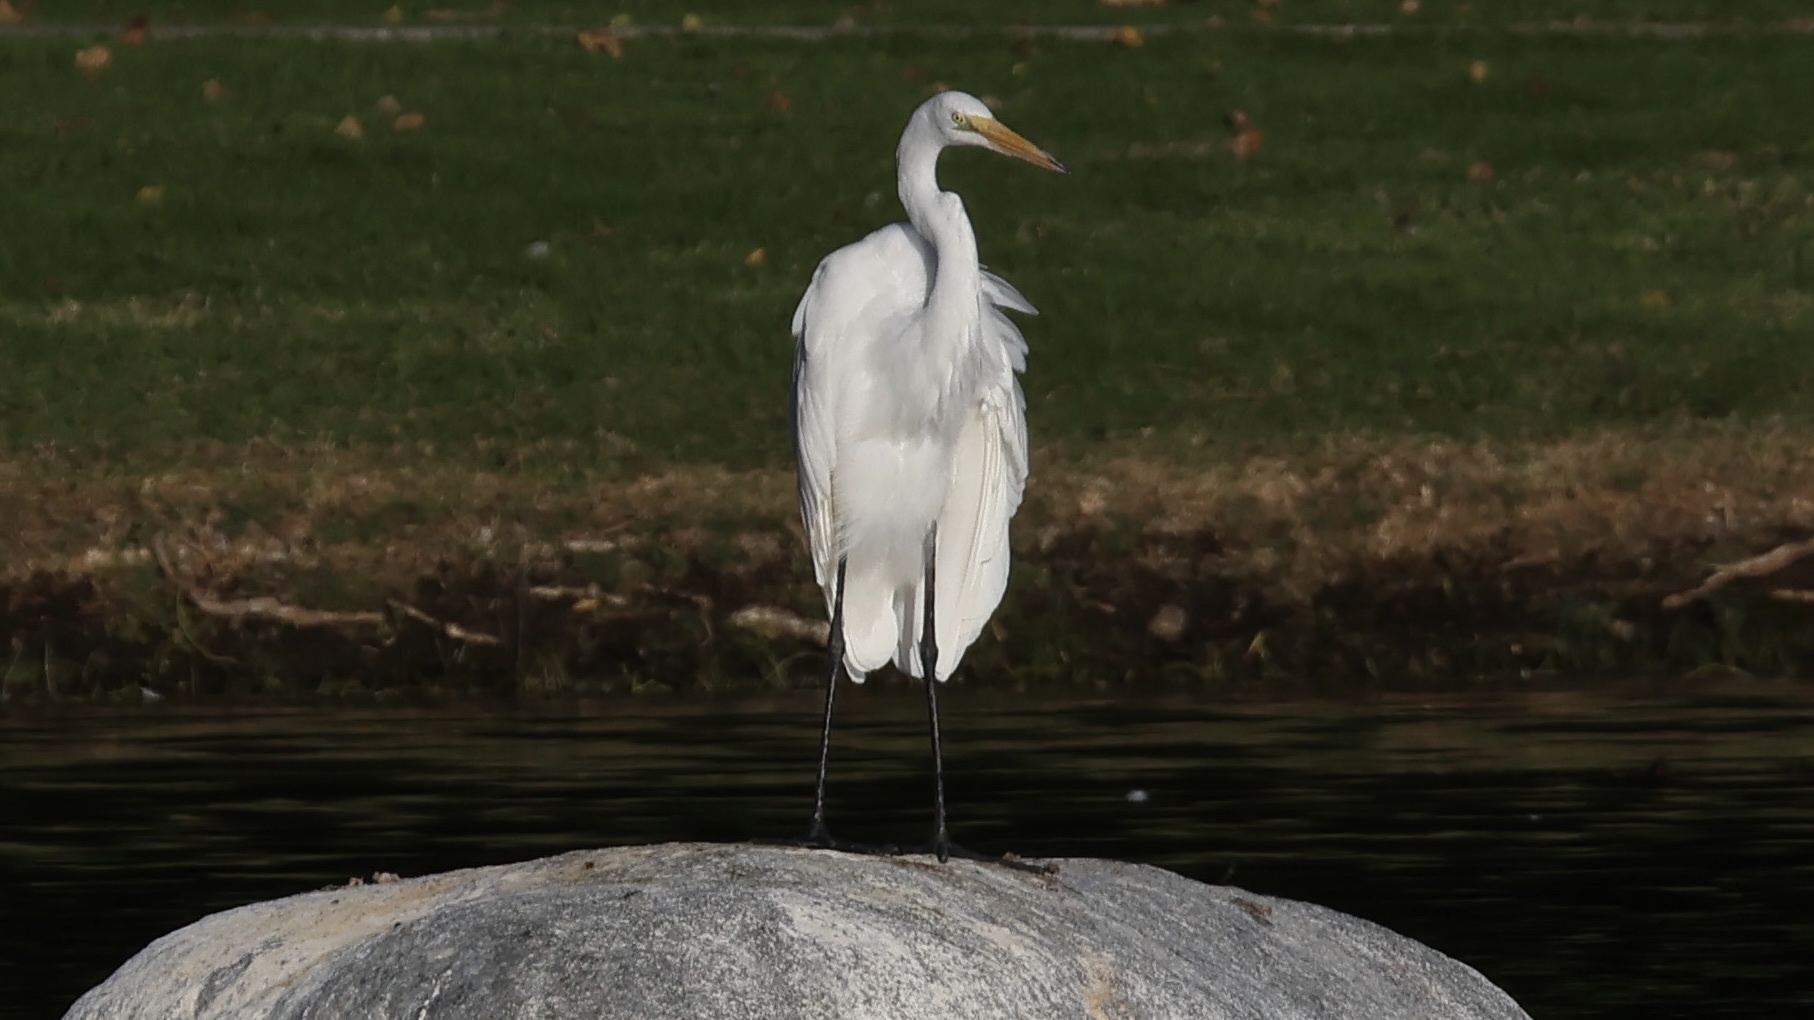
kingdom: Animalia
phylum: Chordata
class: Aves
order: Pelecaniformes
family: Ardeidae
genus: Ardea
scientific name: Ardea alba
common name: Great egret
